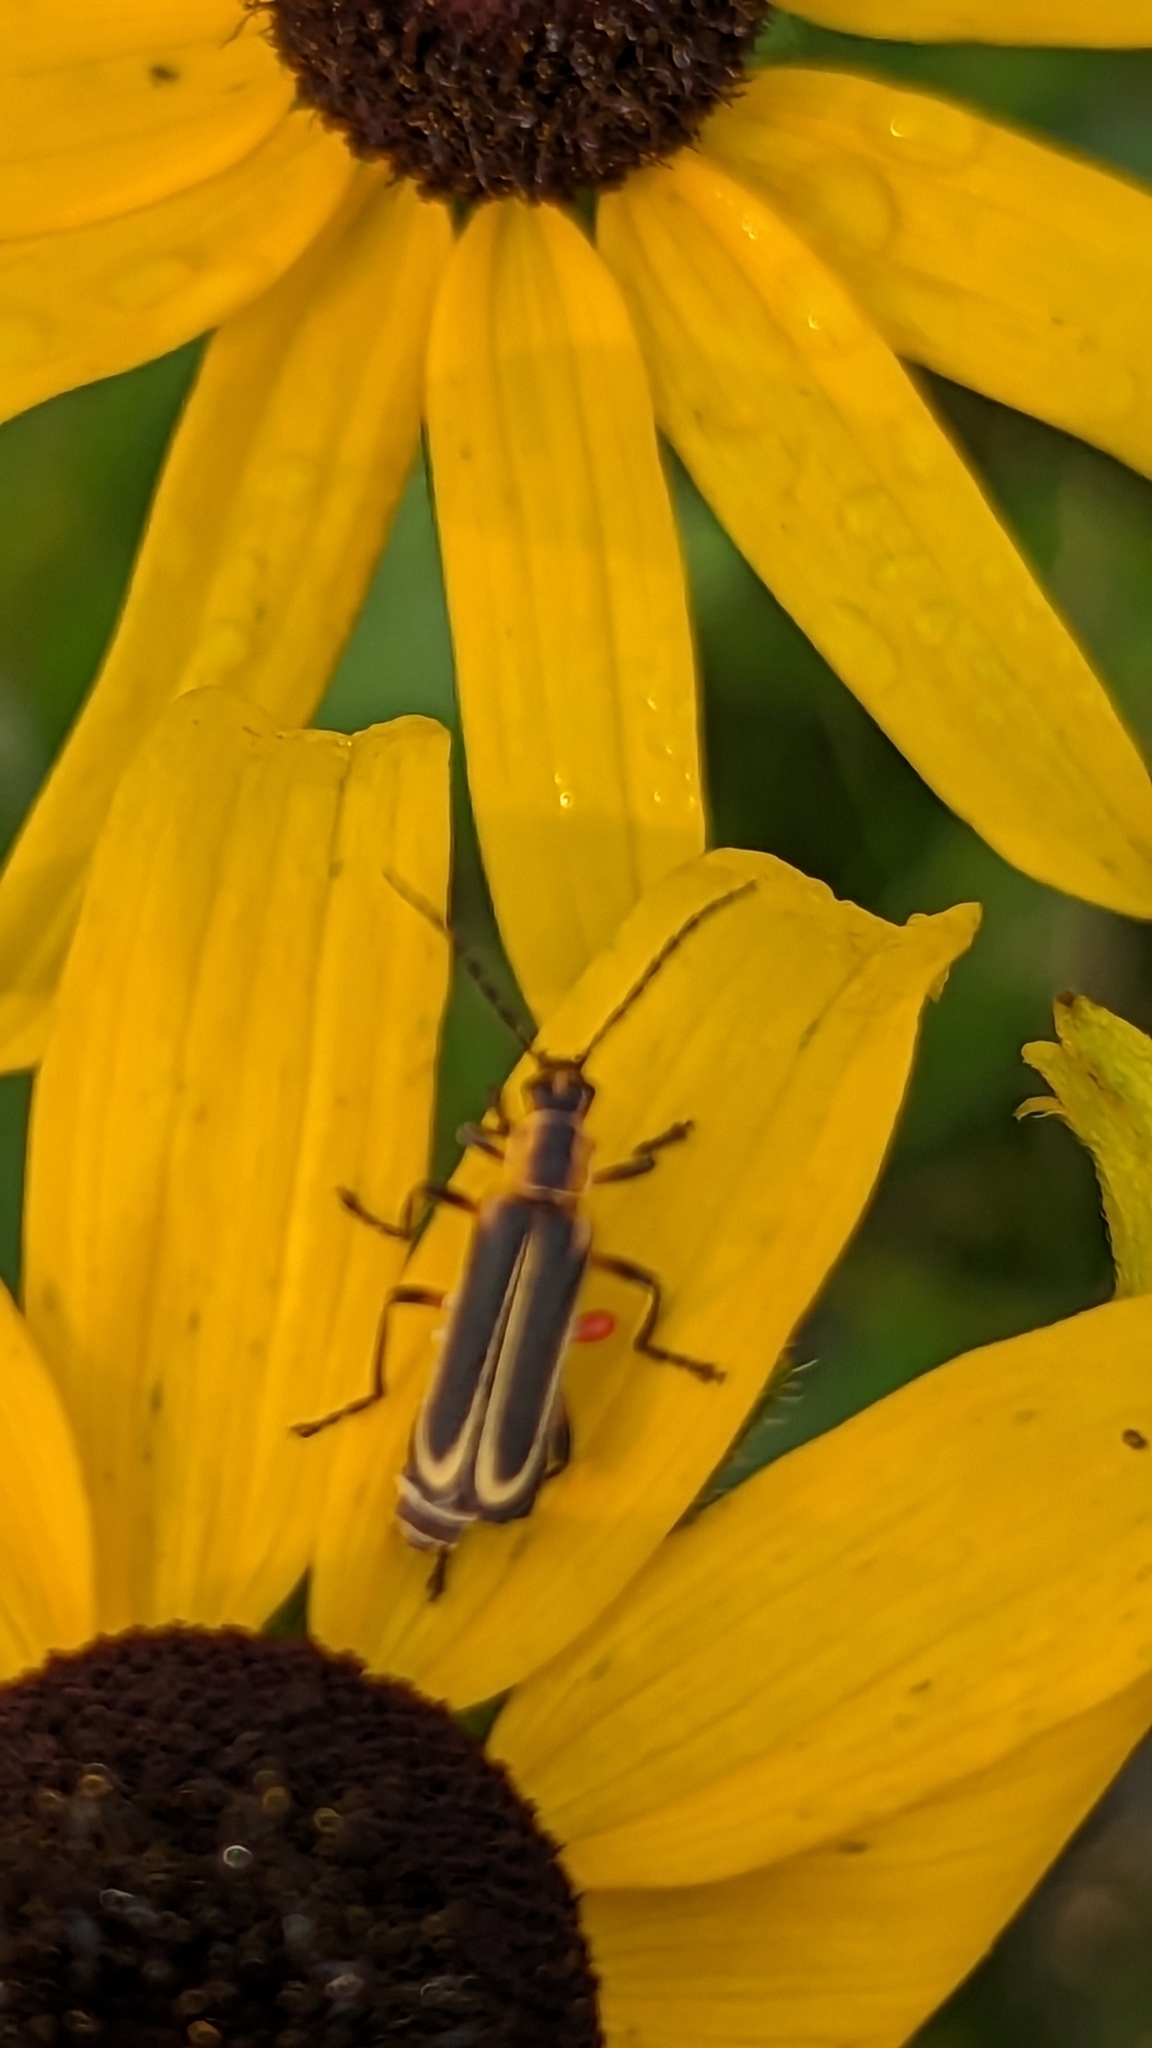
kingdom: Animalia
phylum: Arthropoda
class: Insecta
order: Coleoptera
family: Cantharidae
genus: Chauliognathus
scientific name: Chauliognathus marginatus
